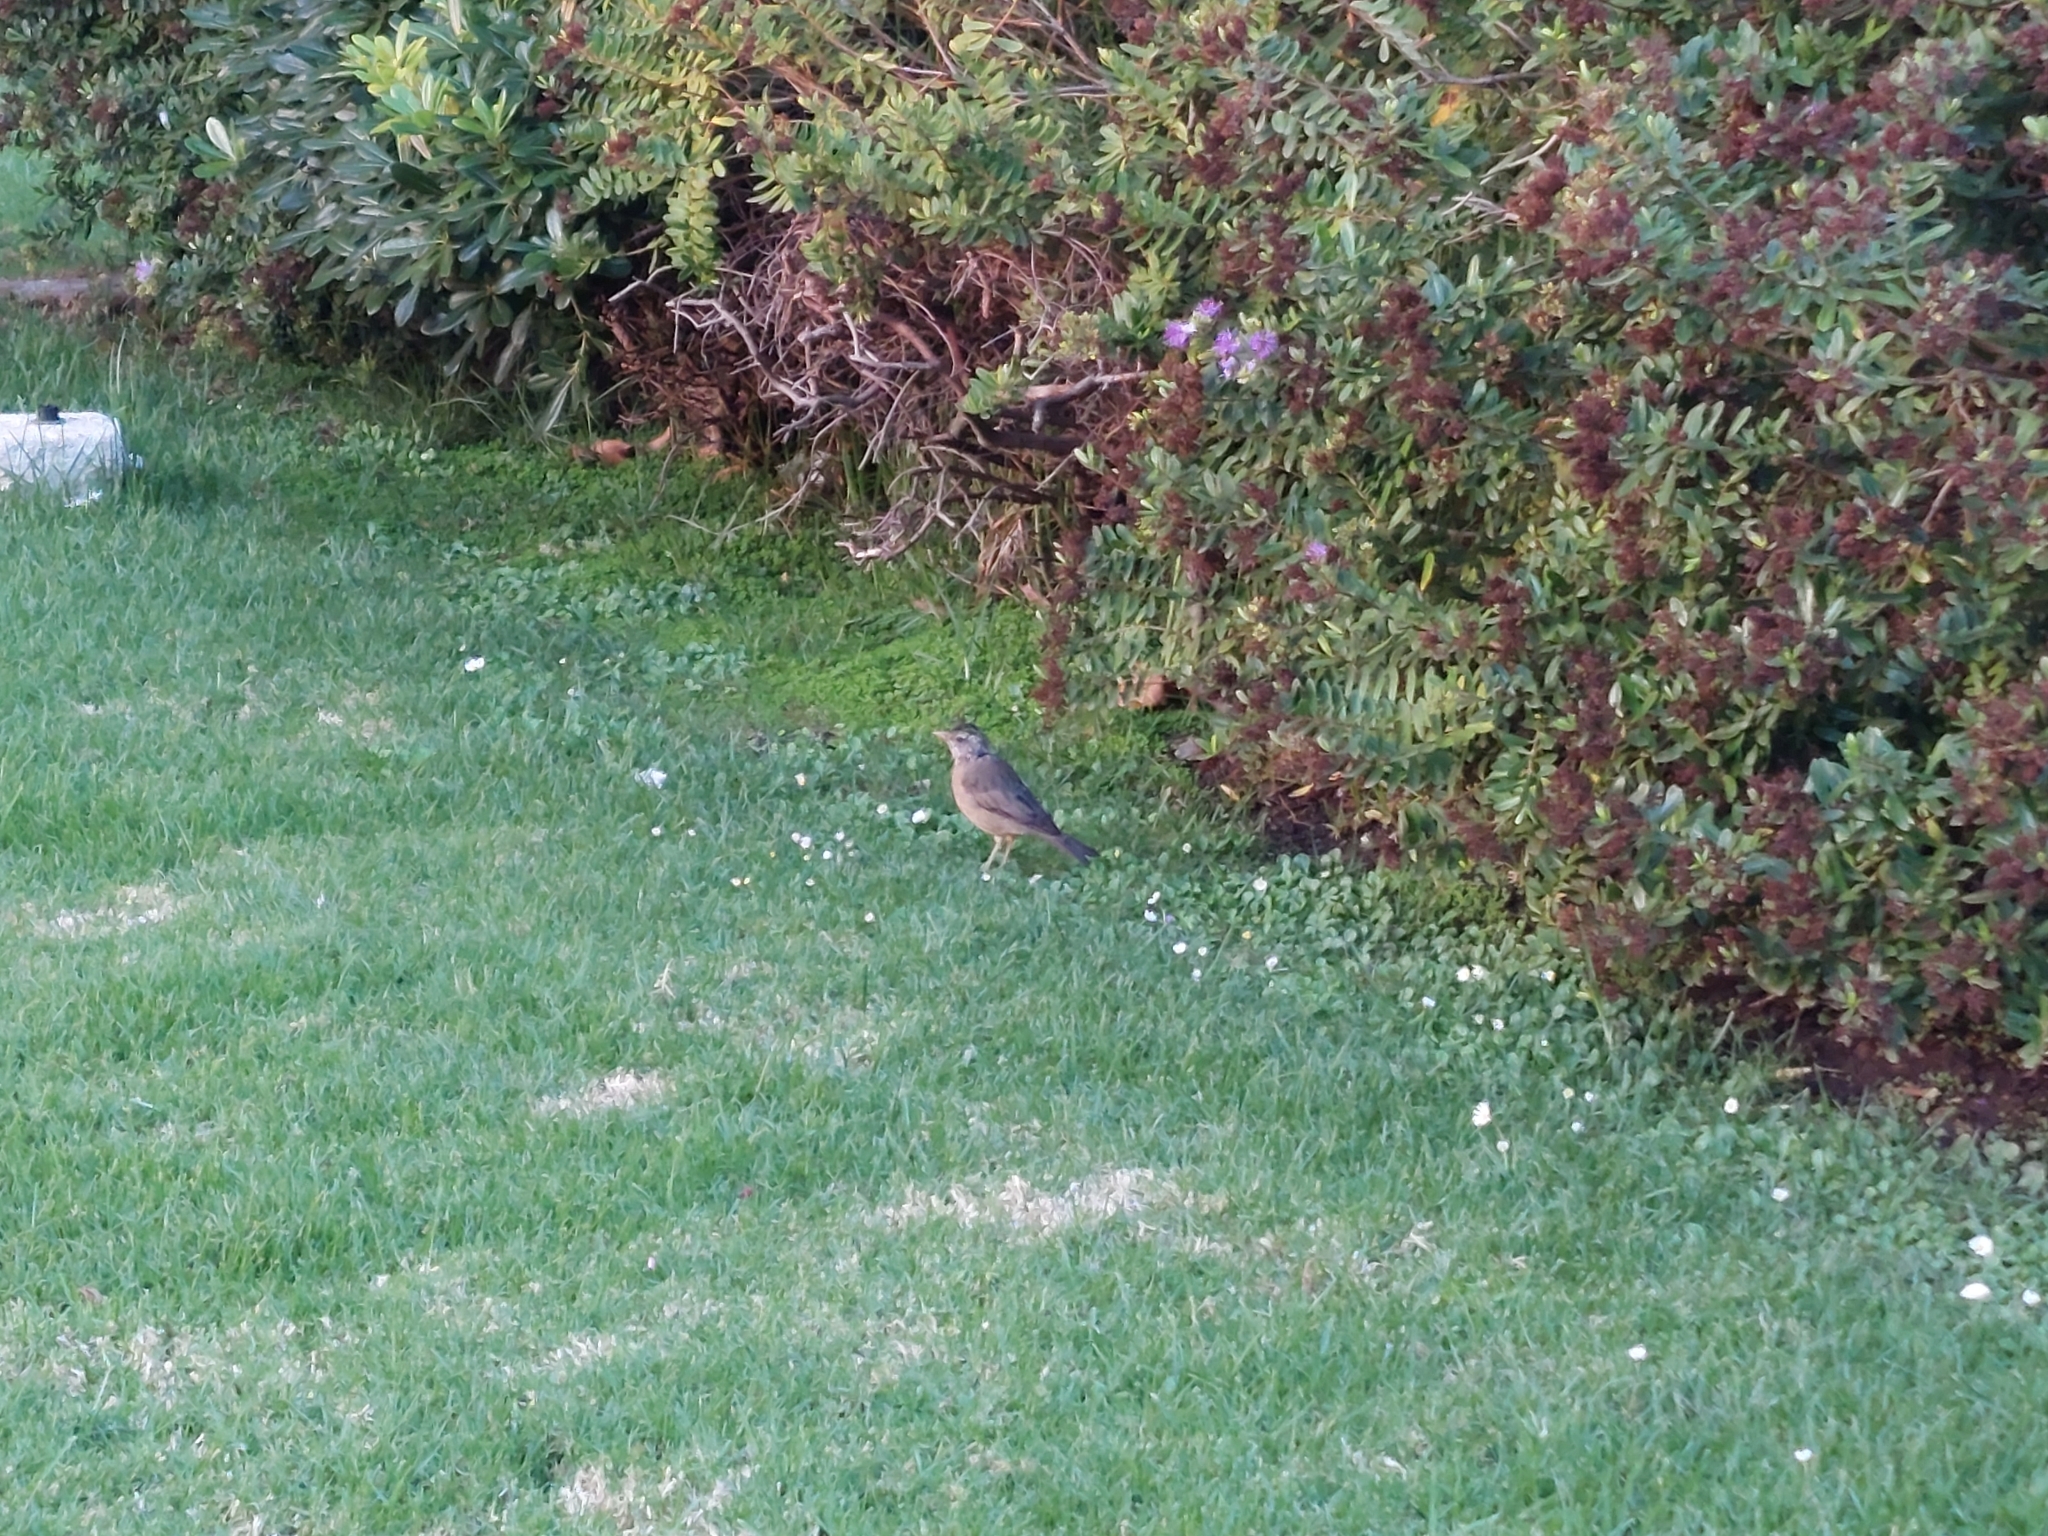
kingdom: Animalia
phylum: Chordata
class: Aves
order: Passeriformes
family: Turdidae
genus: Turdus
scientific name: Turdus falcklandii
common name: Austral thrush
